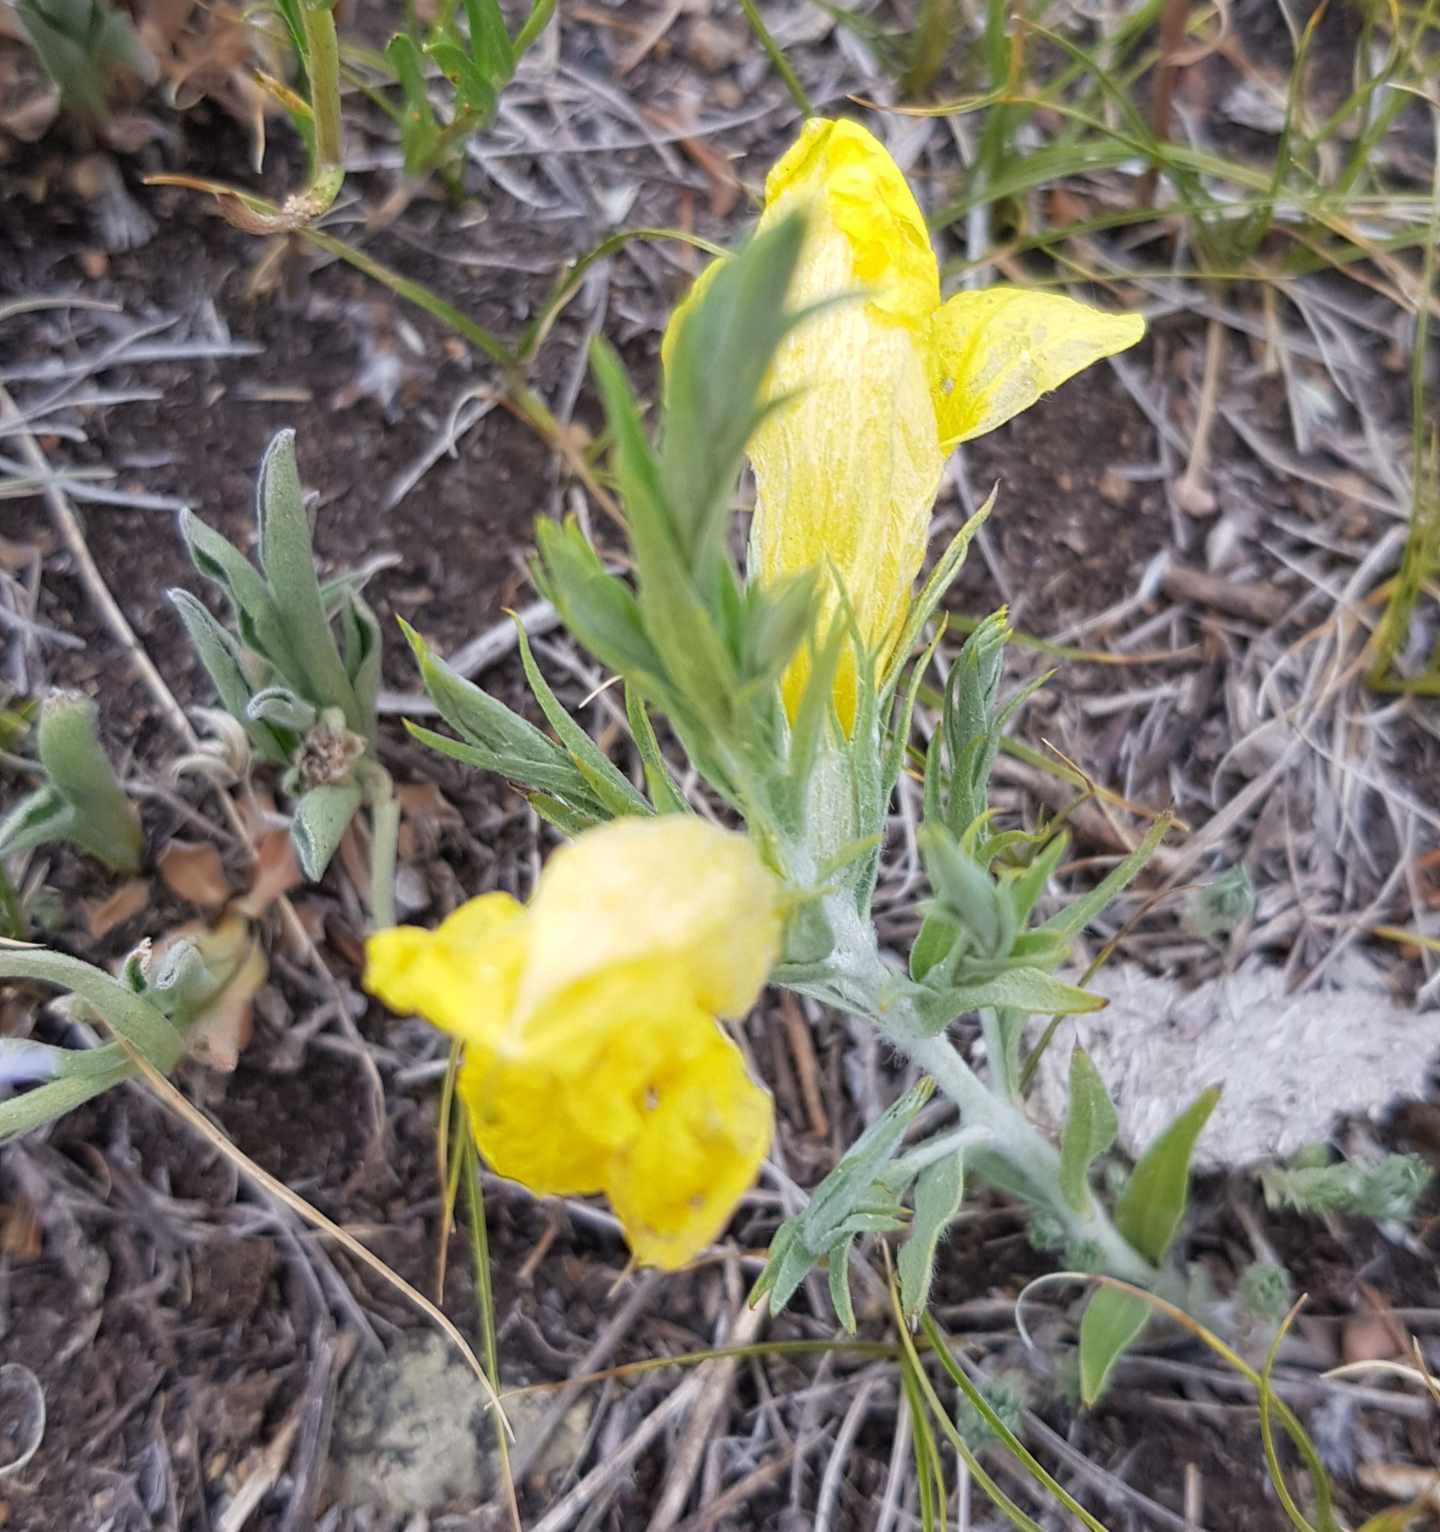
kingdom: Plantae
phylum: Tracheophyta
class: Magnoliopsida
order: Lamiales
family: Orobanchaceae
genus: Cymbaria
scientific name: Cymbaria daurica
